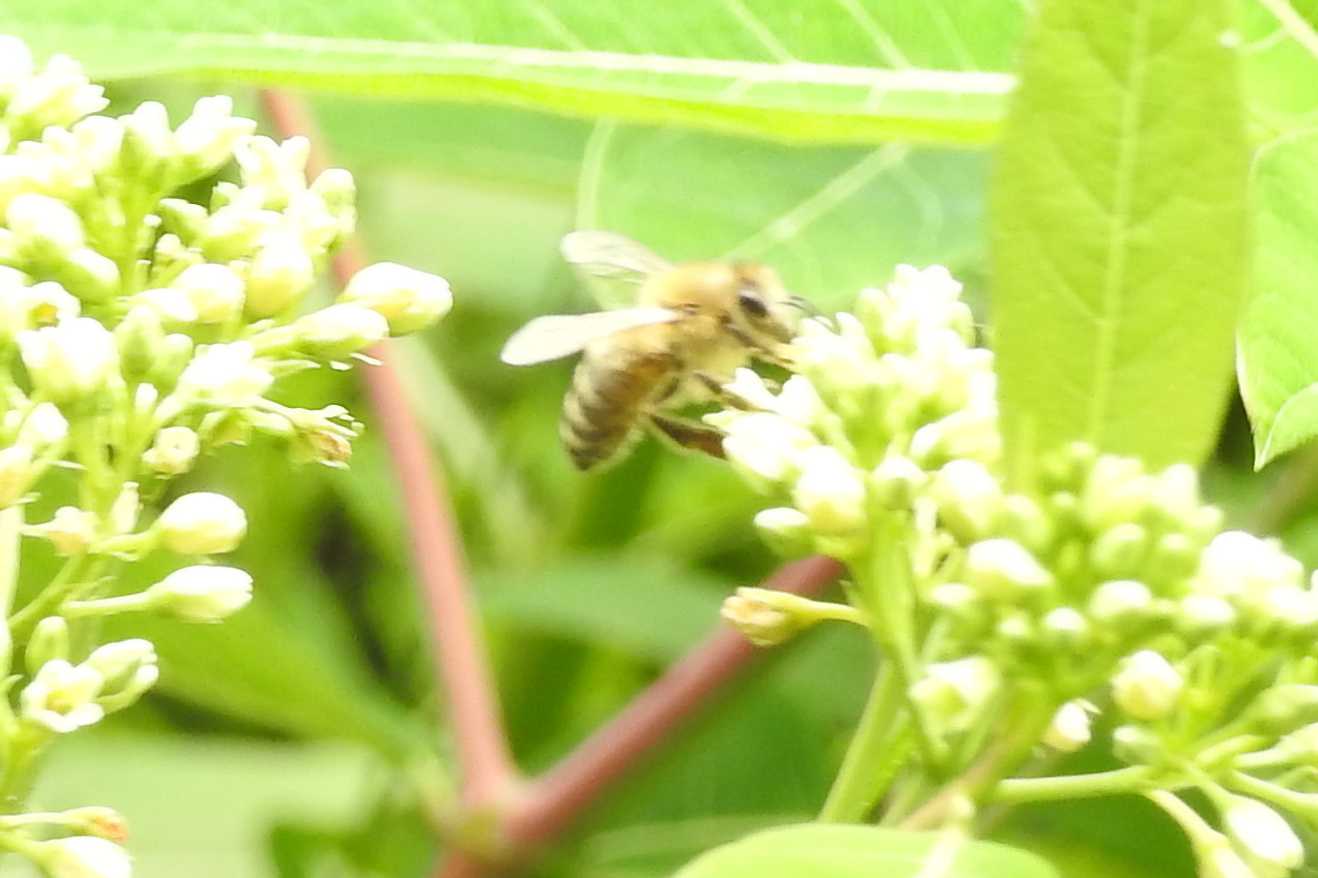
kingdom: Animalia
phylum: Arthropoda
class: Insecta
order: Hymenoptera
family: Apidae
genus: Apis
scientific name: Apis mellifera
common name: Honey bee
